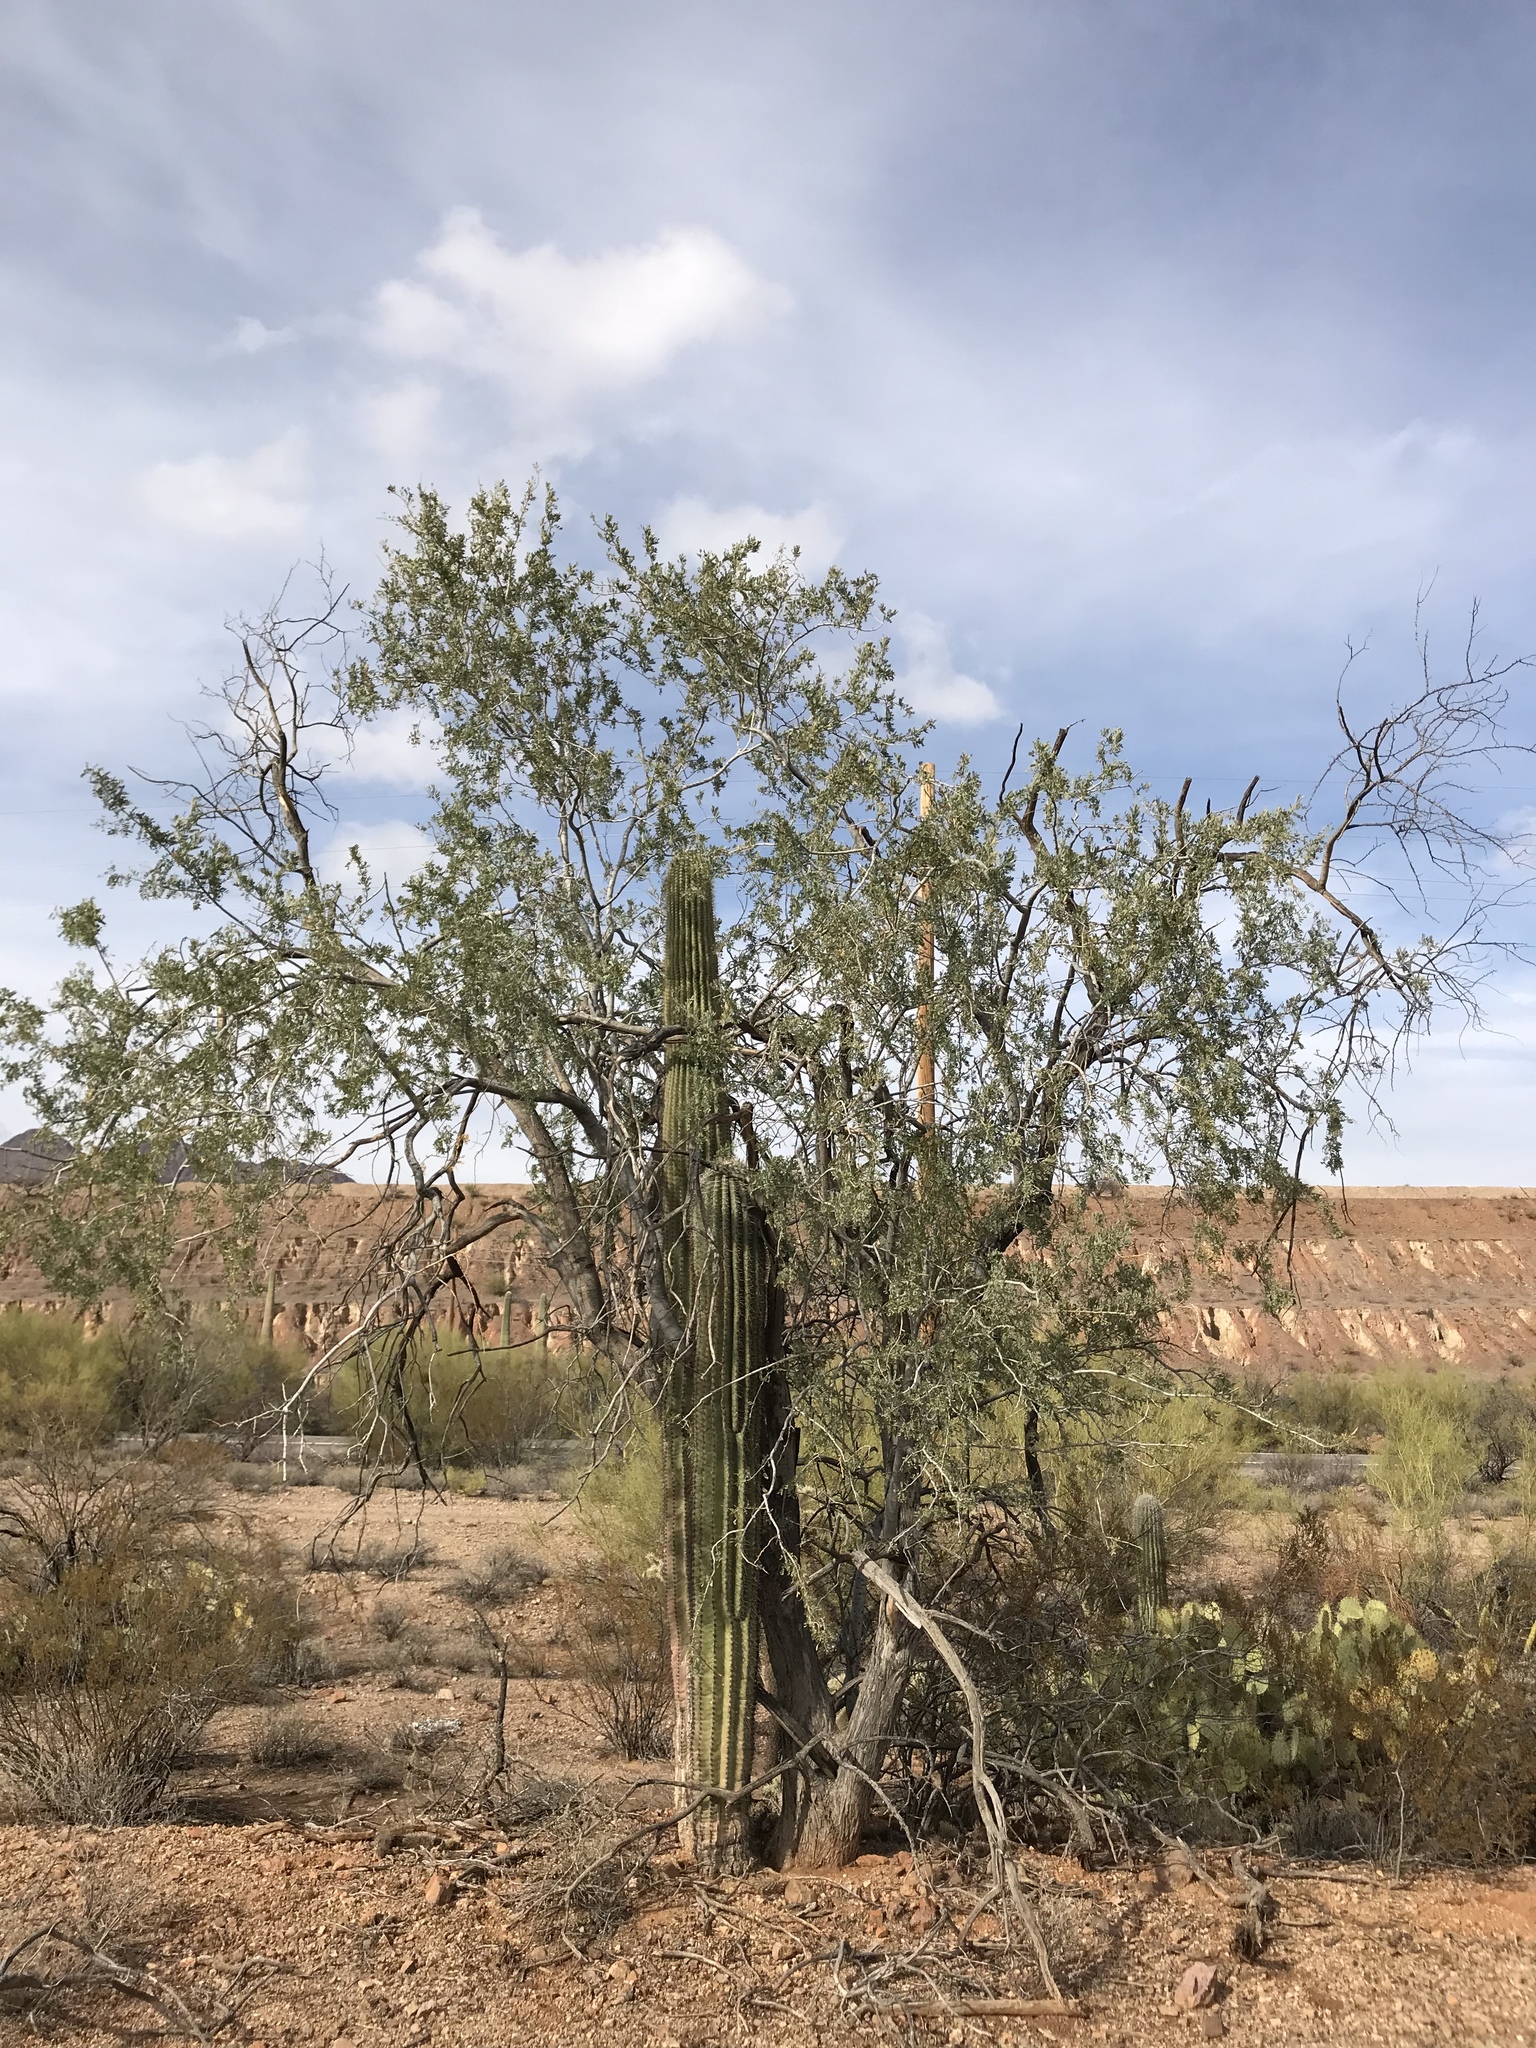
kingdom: Plantae
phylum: Tracheophyta
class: Magnoliopsida
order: Fabales
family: Fabaceae
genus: Olneya
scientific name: Olneya tesota
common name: Desert ironwood
